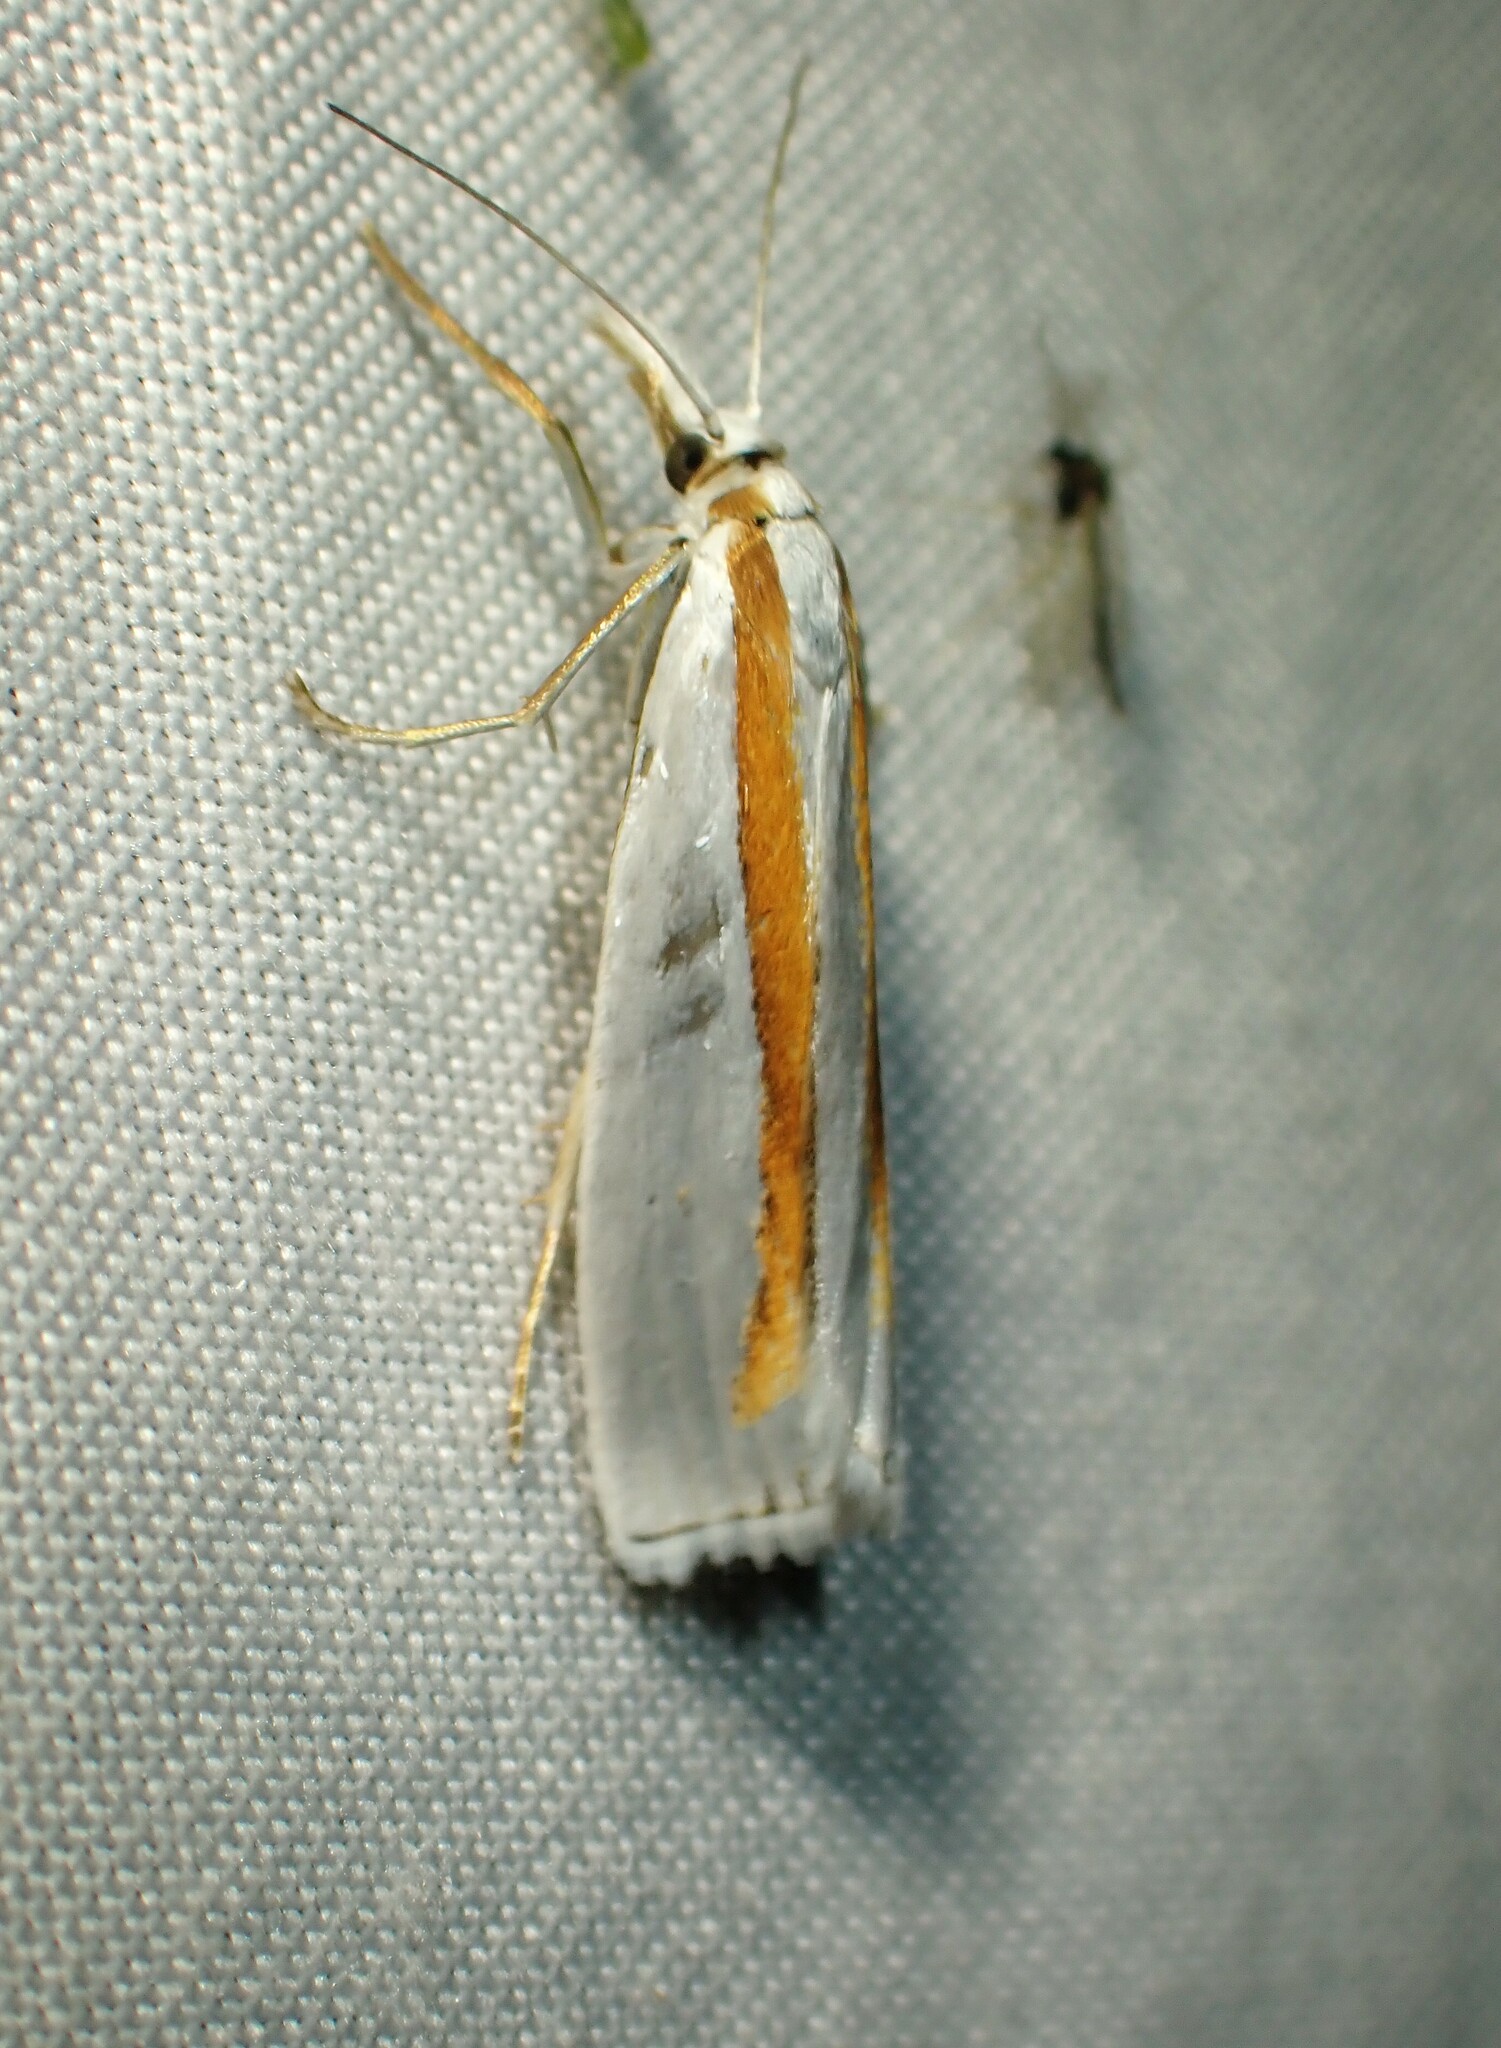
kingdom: Animalia
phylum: Arthropoda
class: Insecta
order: Lepidoptera
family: Crambidae
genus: Crambus
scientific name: Crambus girardellus
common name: Girard's grass-veneer
